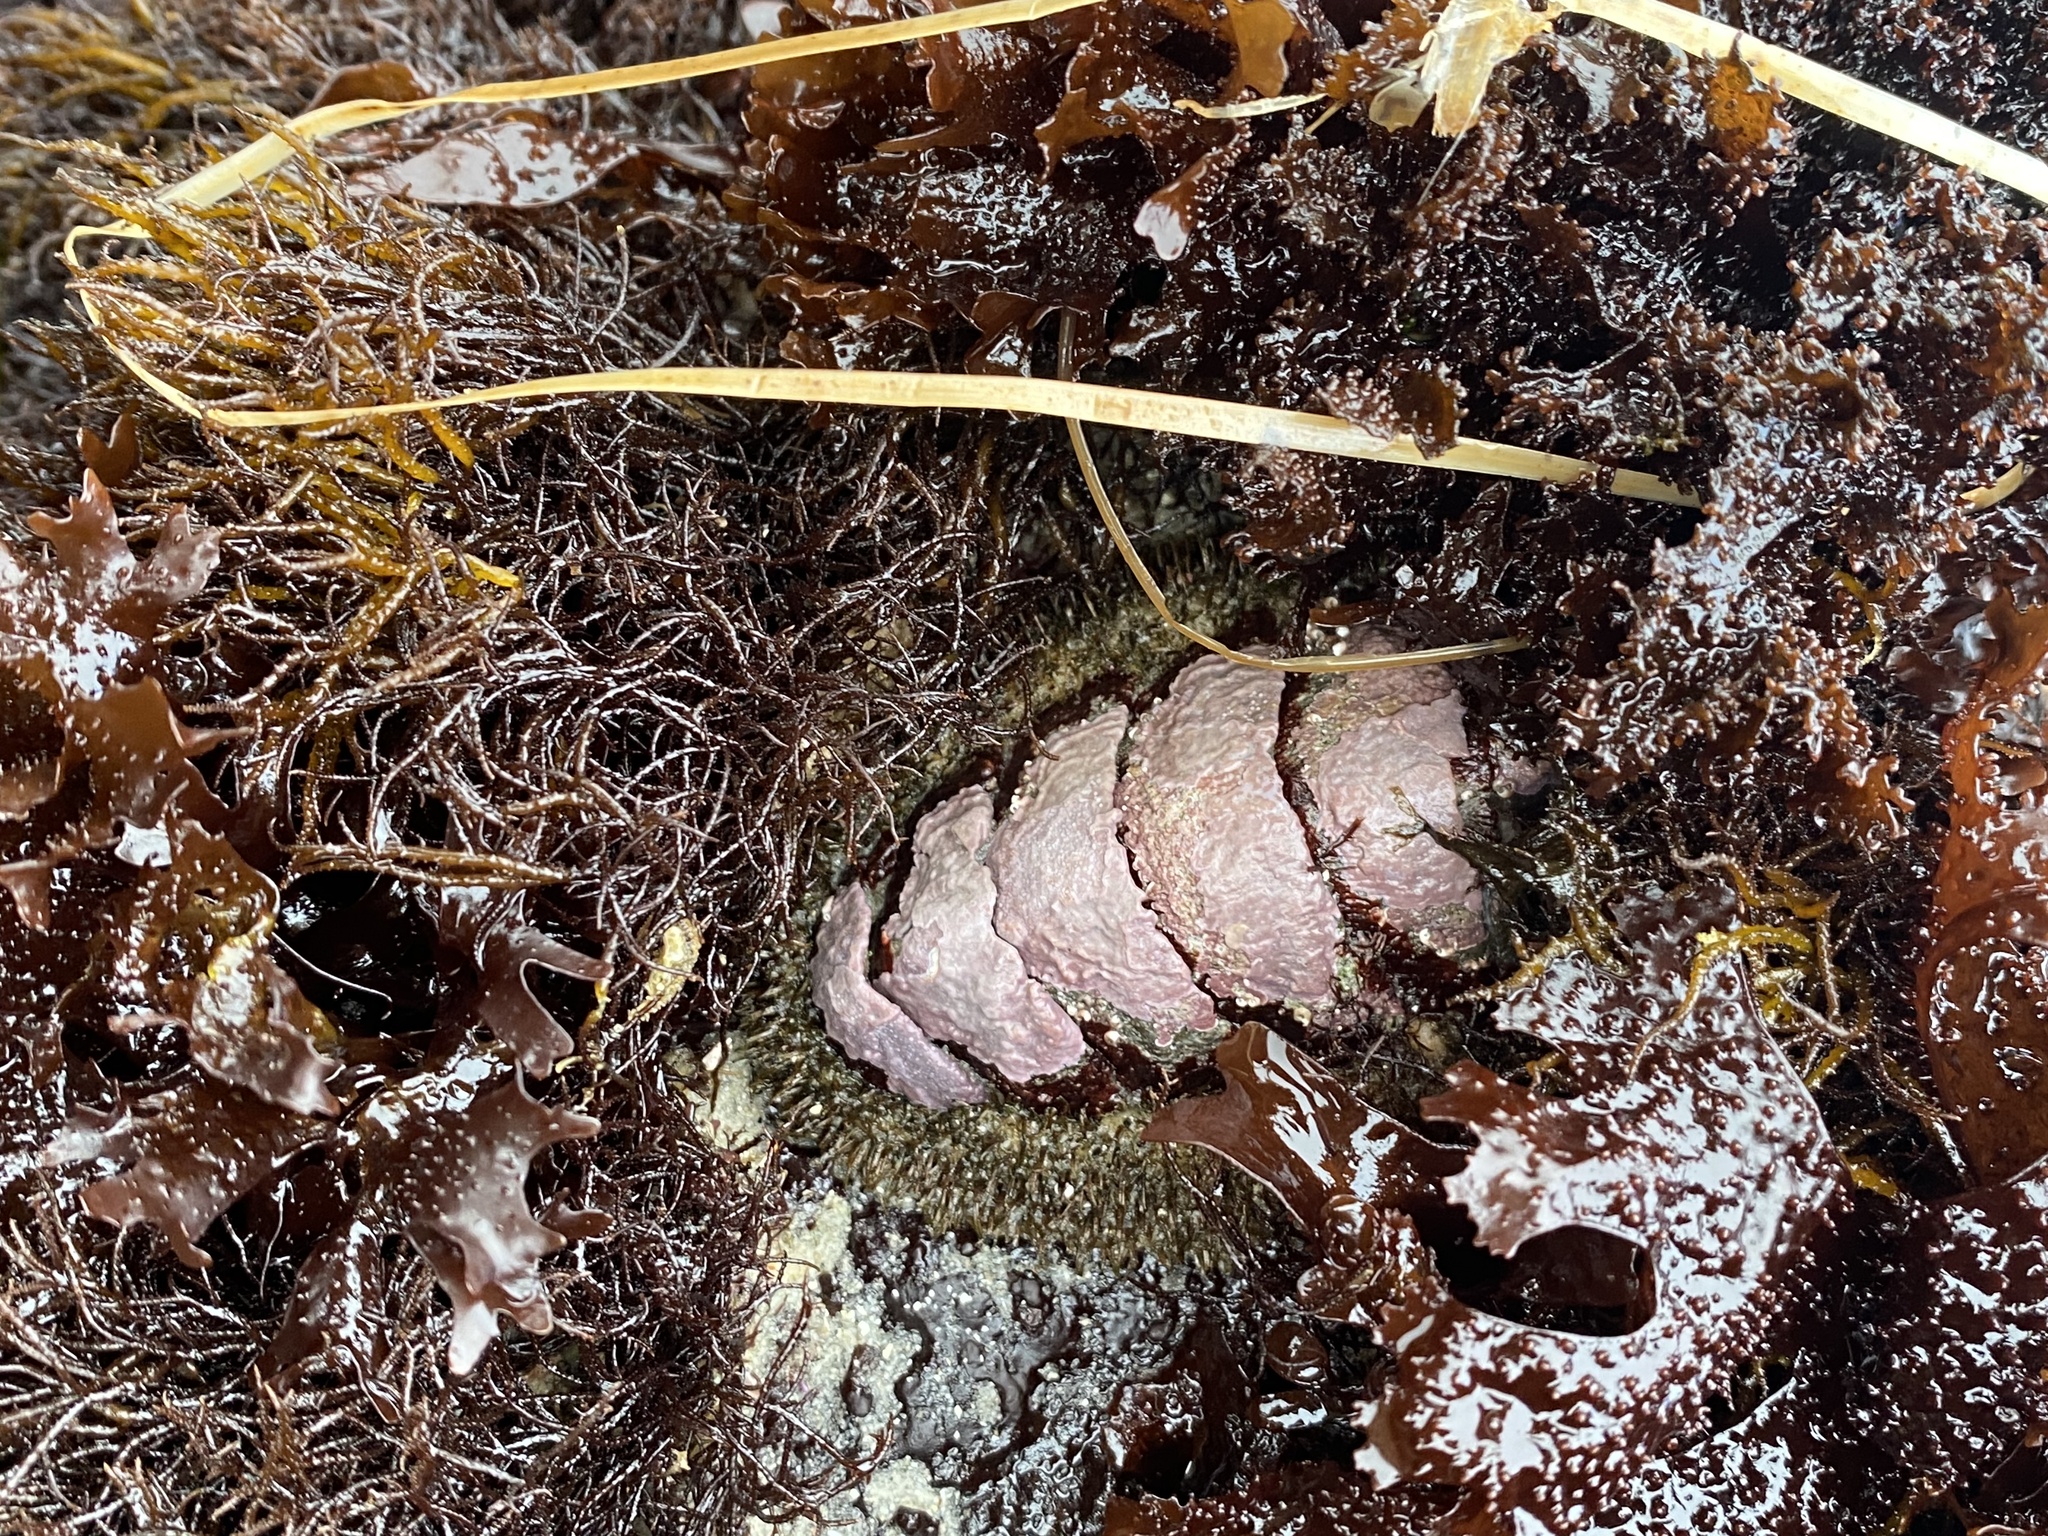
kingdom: Animalia
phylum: Mollusca
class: Polyplacophora
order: Chitonida
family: Mopaliidae
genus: Mopalia
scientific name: Mopalia muscosa
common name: Mossy chiton
